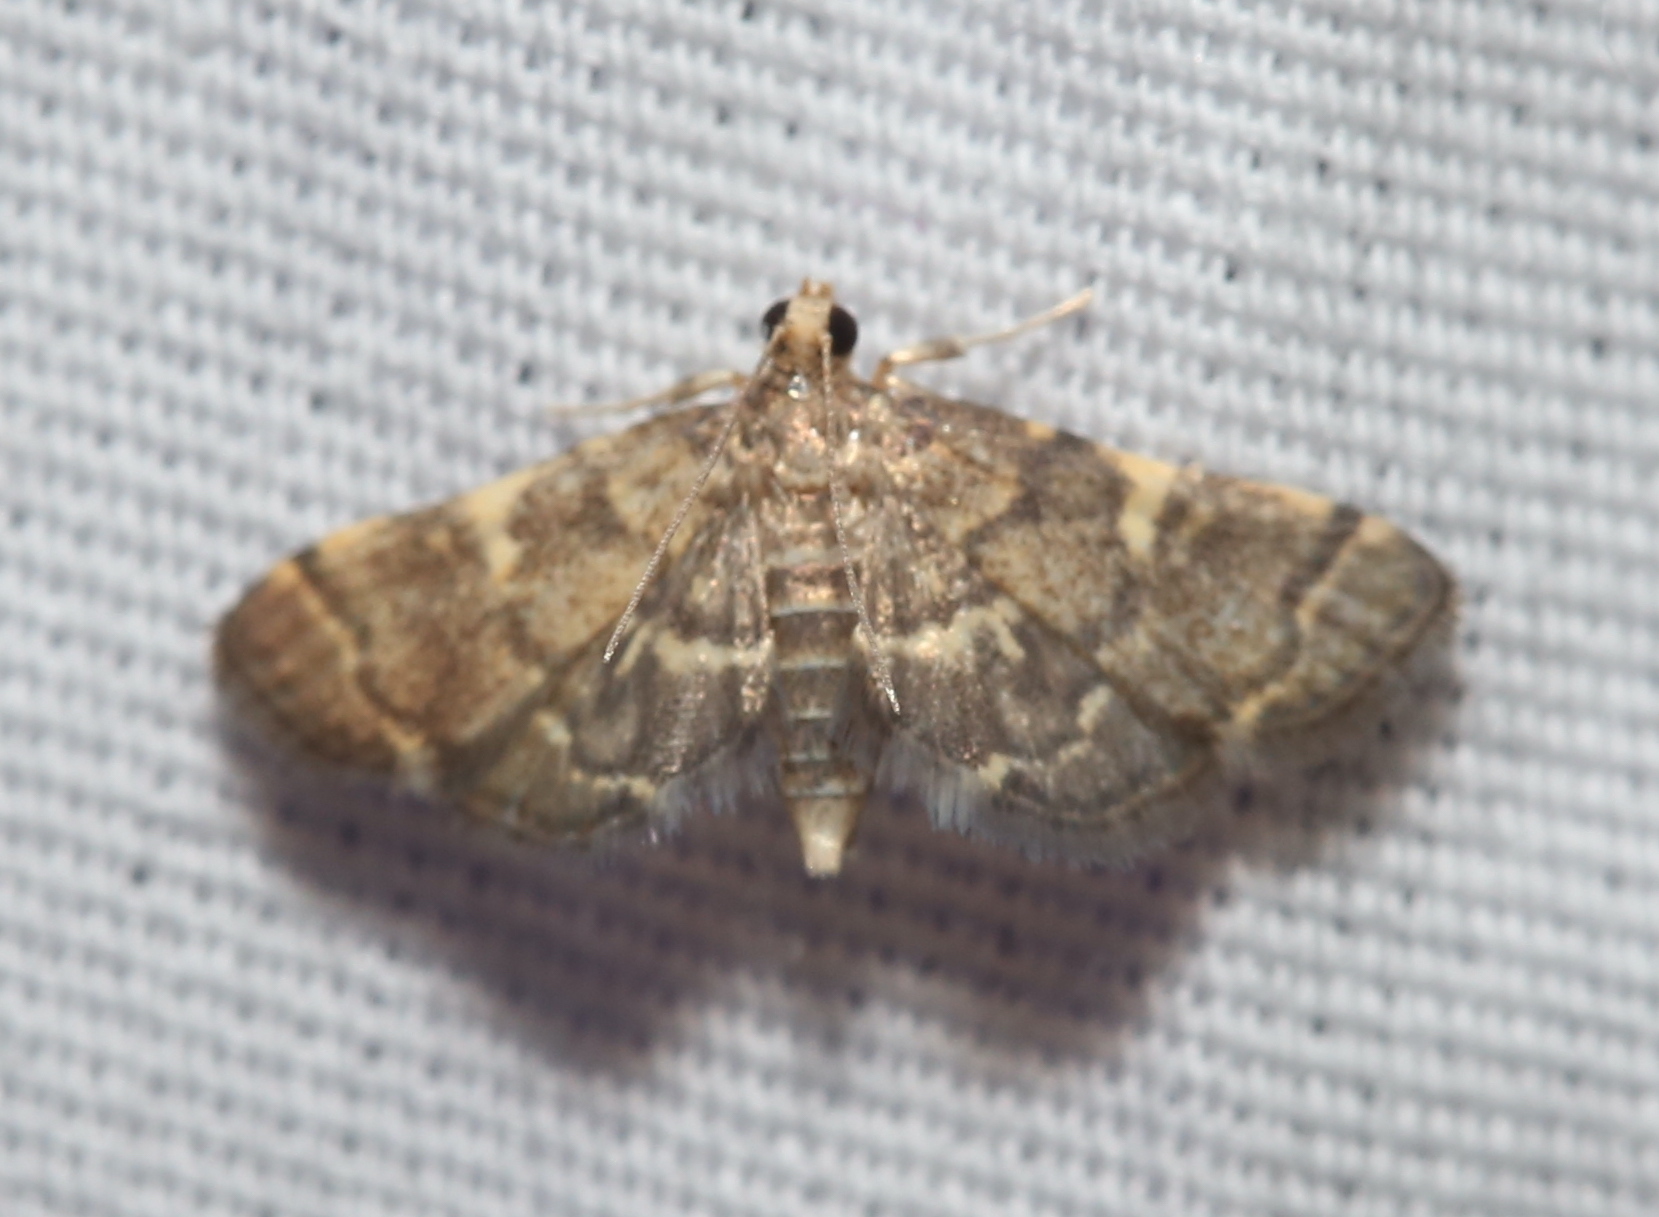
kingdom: Animalia
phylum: Arthropoda
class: Insecta
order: Lepidoptera
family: Crambidae
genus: Anageshna
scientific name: Anageshna primordialis
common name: Yellow-spotted webworm moth
